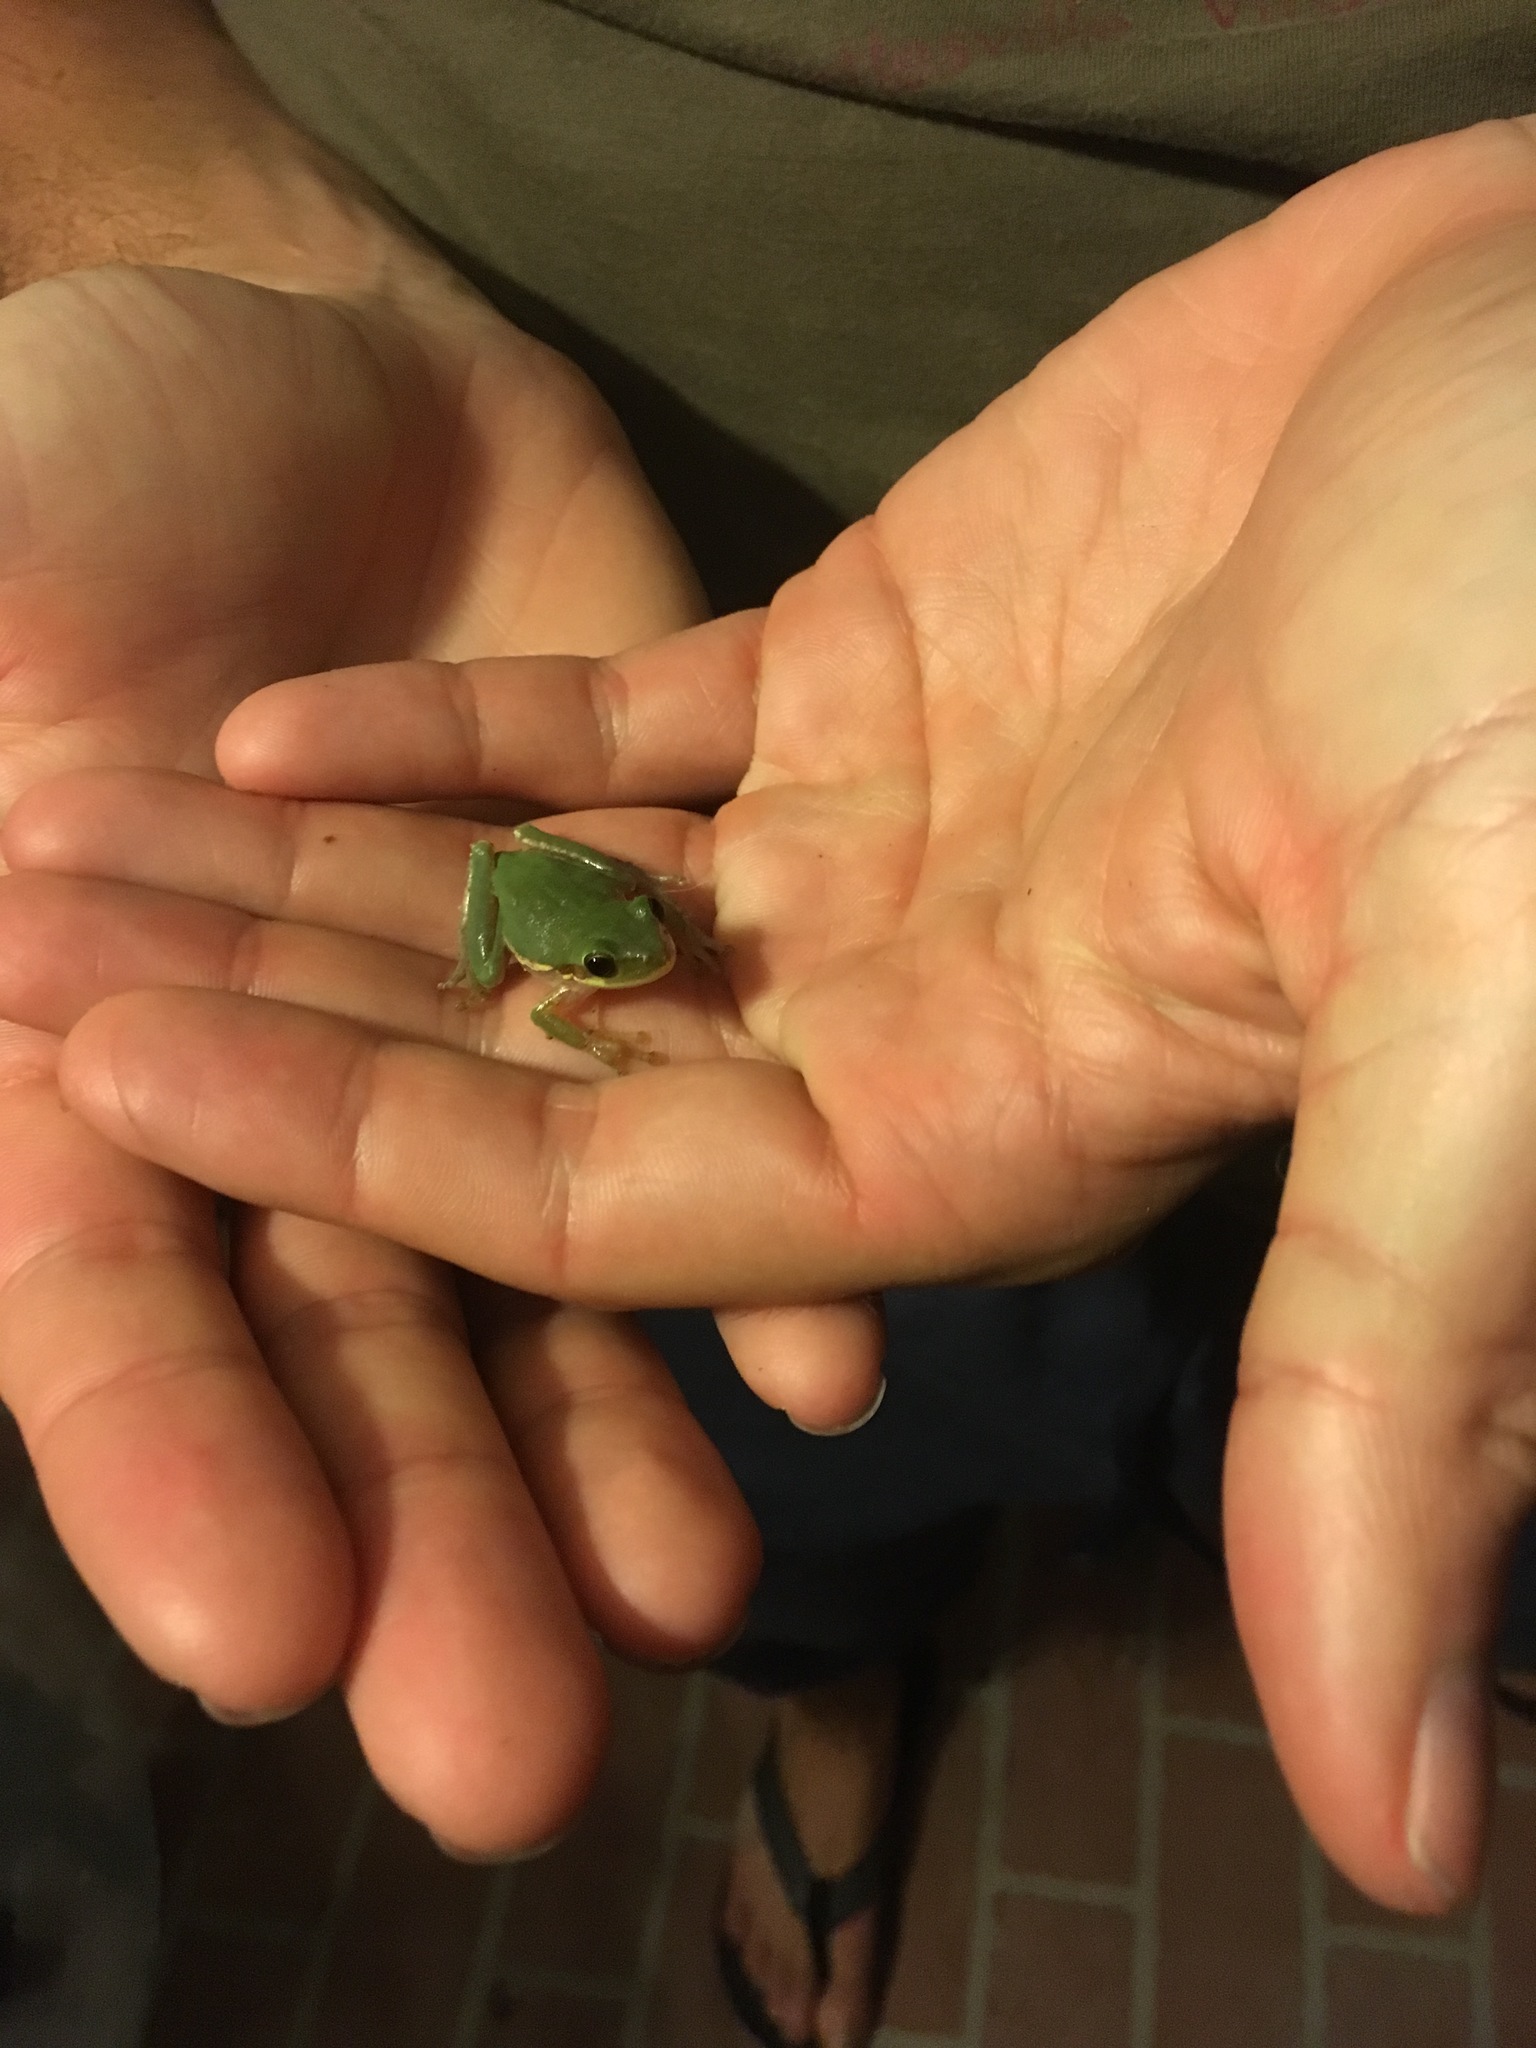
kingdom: Animalia
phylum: Chordata
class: Amphibia
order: Anura
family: Hylidae
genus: Dryophytes
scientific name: Dryophytes squirellus
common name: Squirrel treefrog
